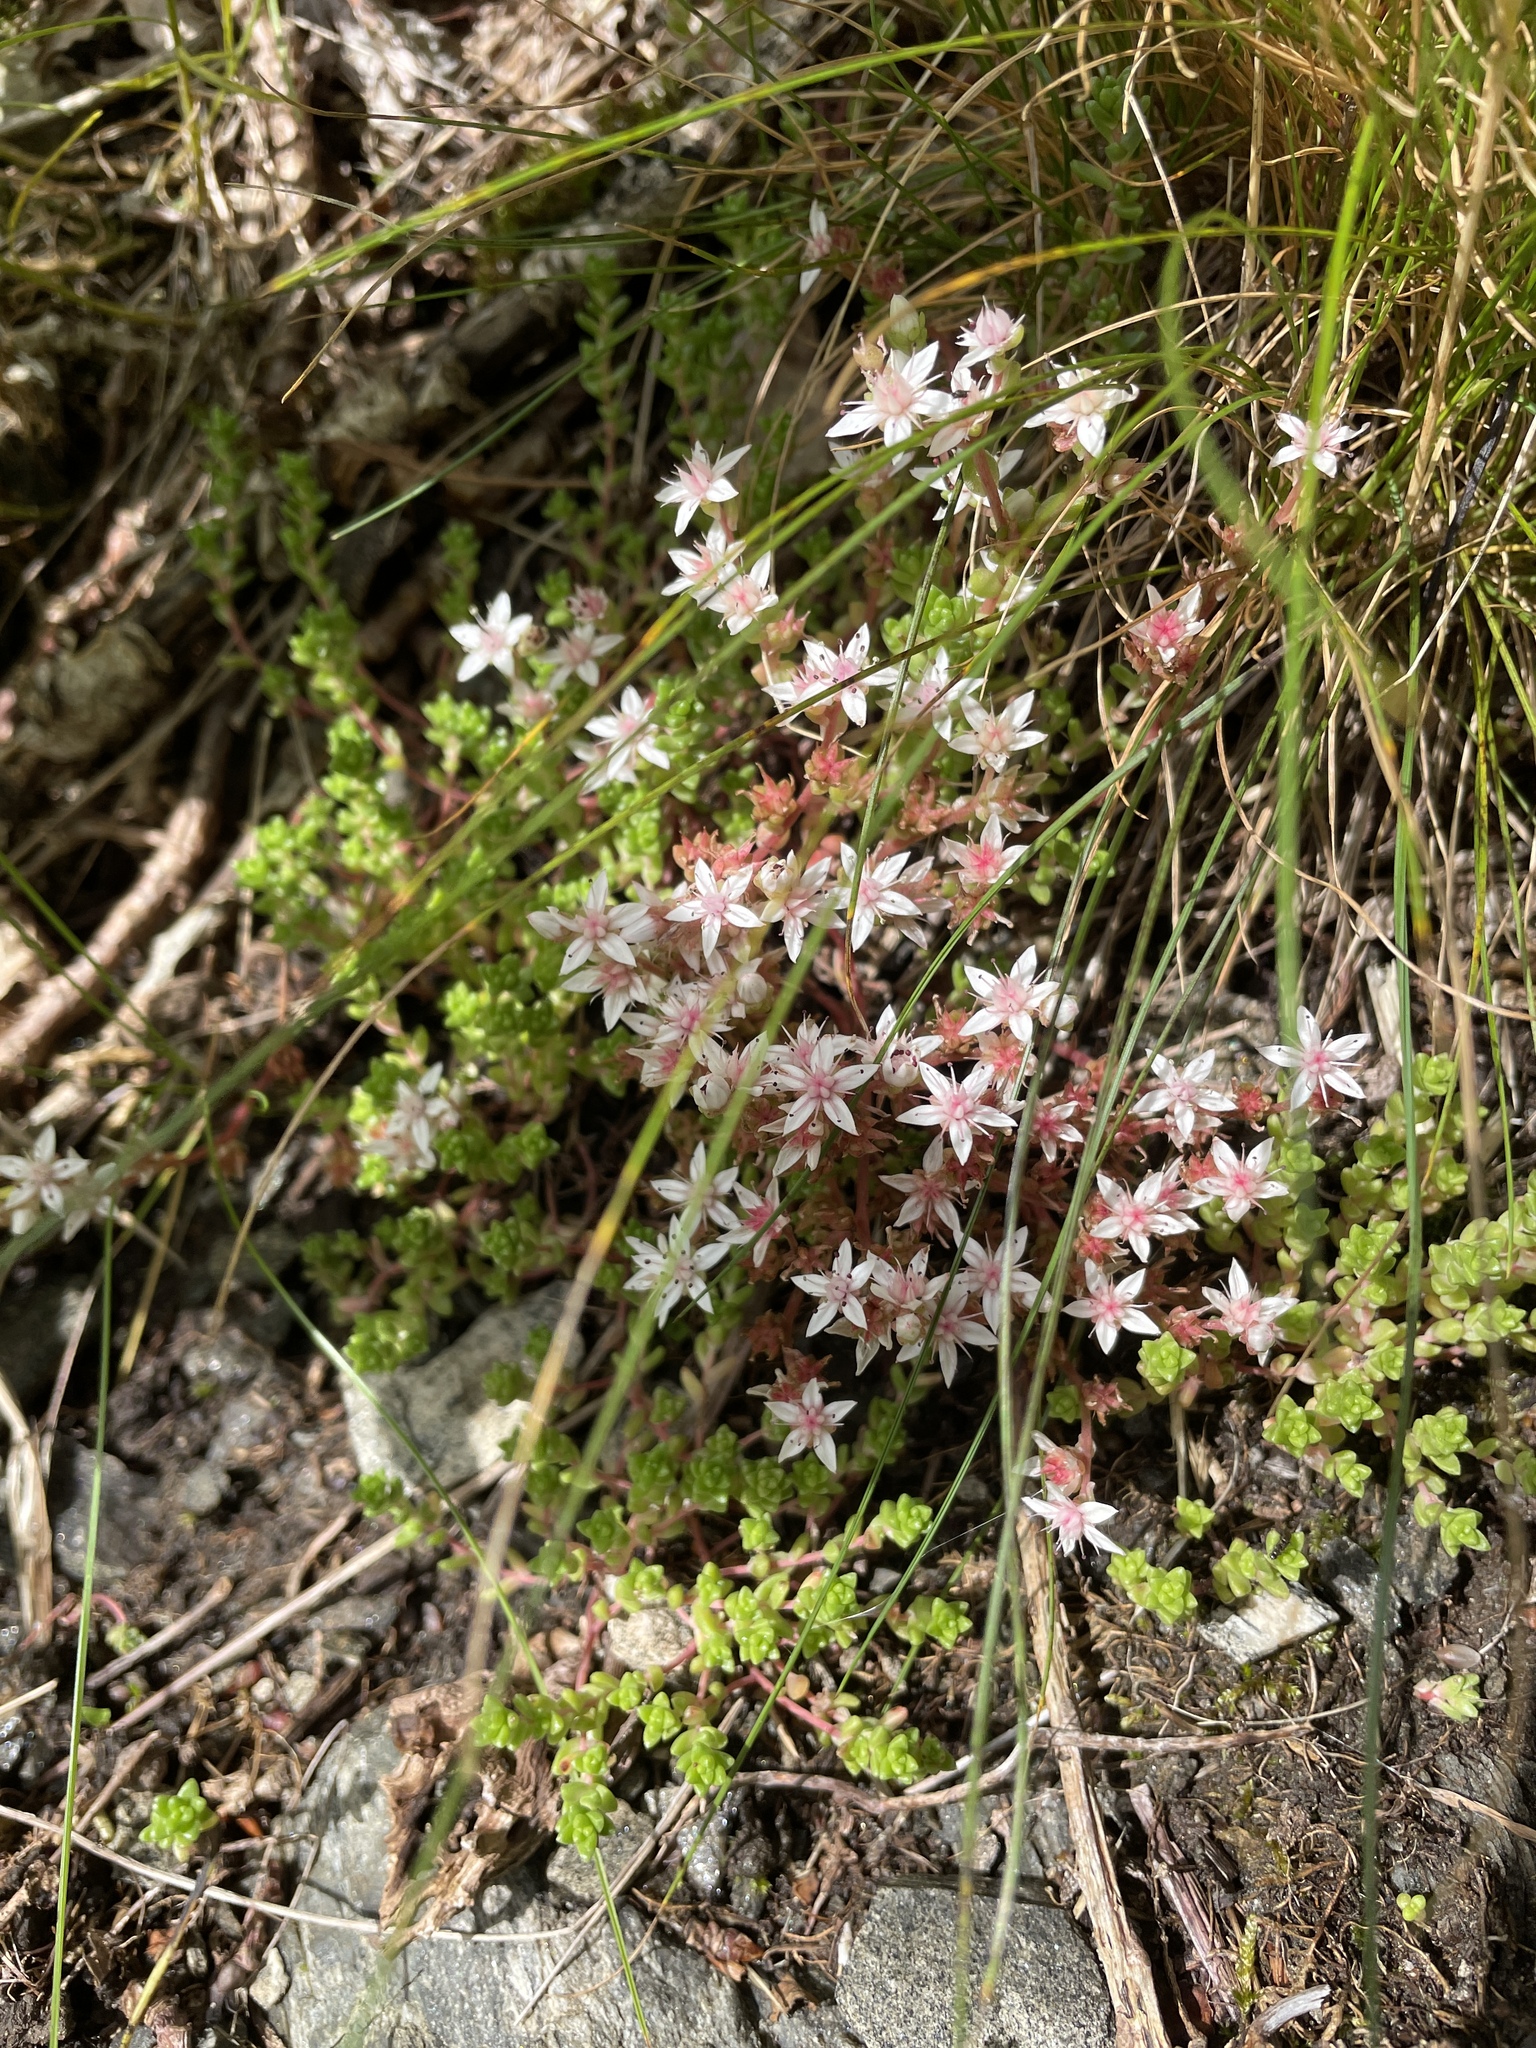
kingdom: Plantae
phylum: Tracheophyta
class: Magnoliopsida
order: Saxifragales
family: Crassulaceae
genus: Sedum
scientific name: Sedum anglicum
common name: English stonecrop
